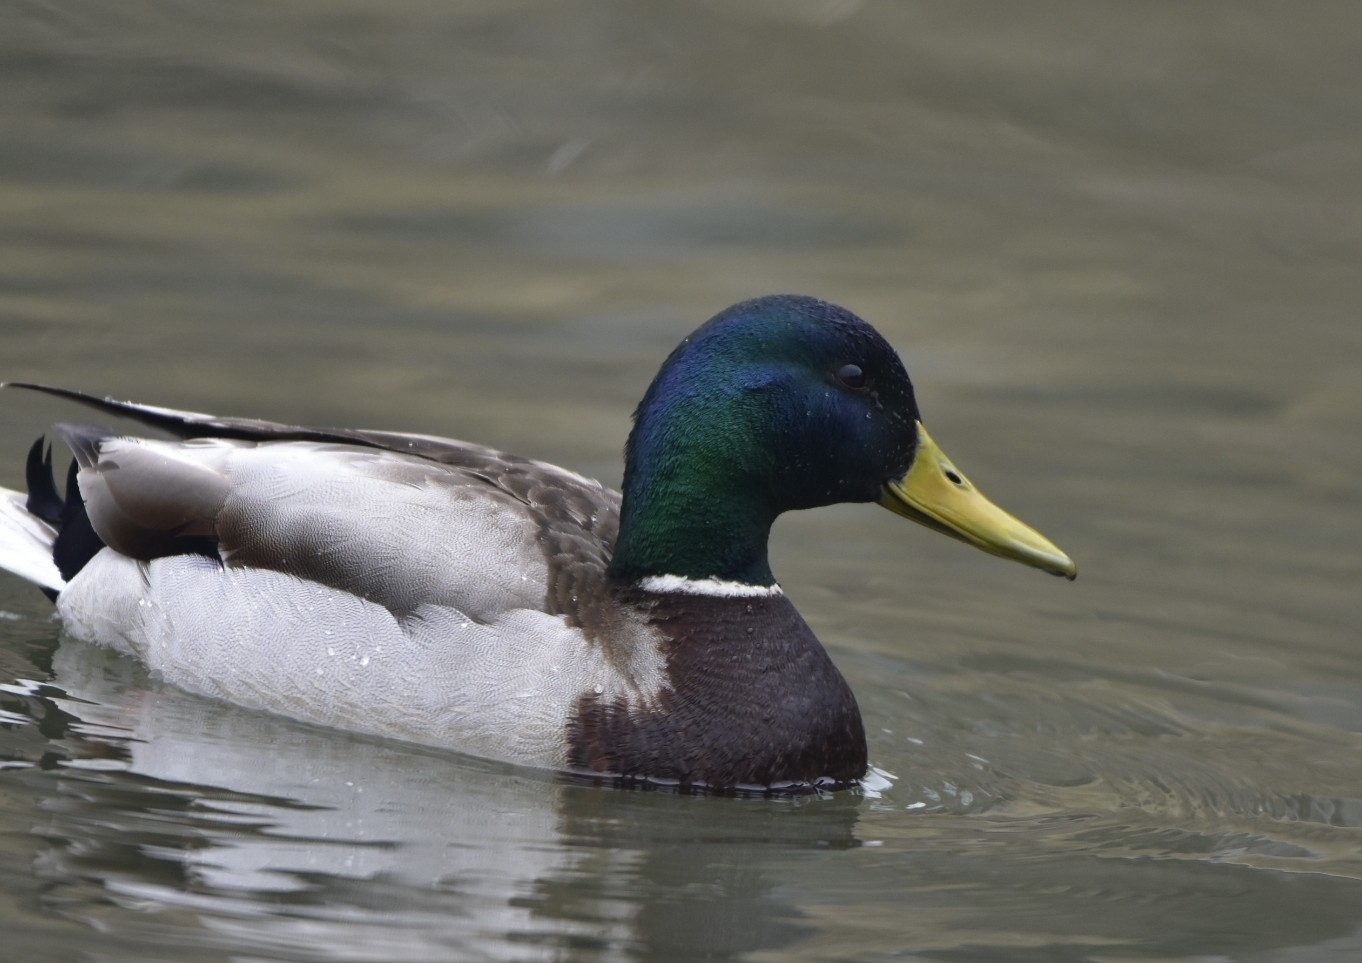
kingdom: Animalia
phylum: Chordata
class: Aves
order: Anseriformes
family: Anatidae
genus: Anas
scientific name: Anas platyrhynchos
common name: Mallard
